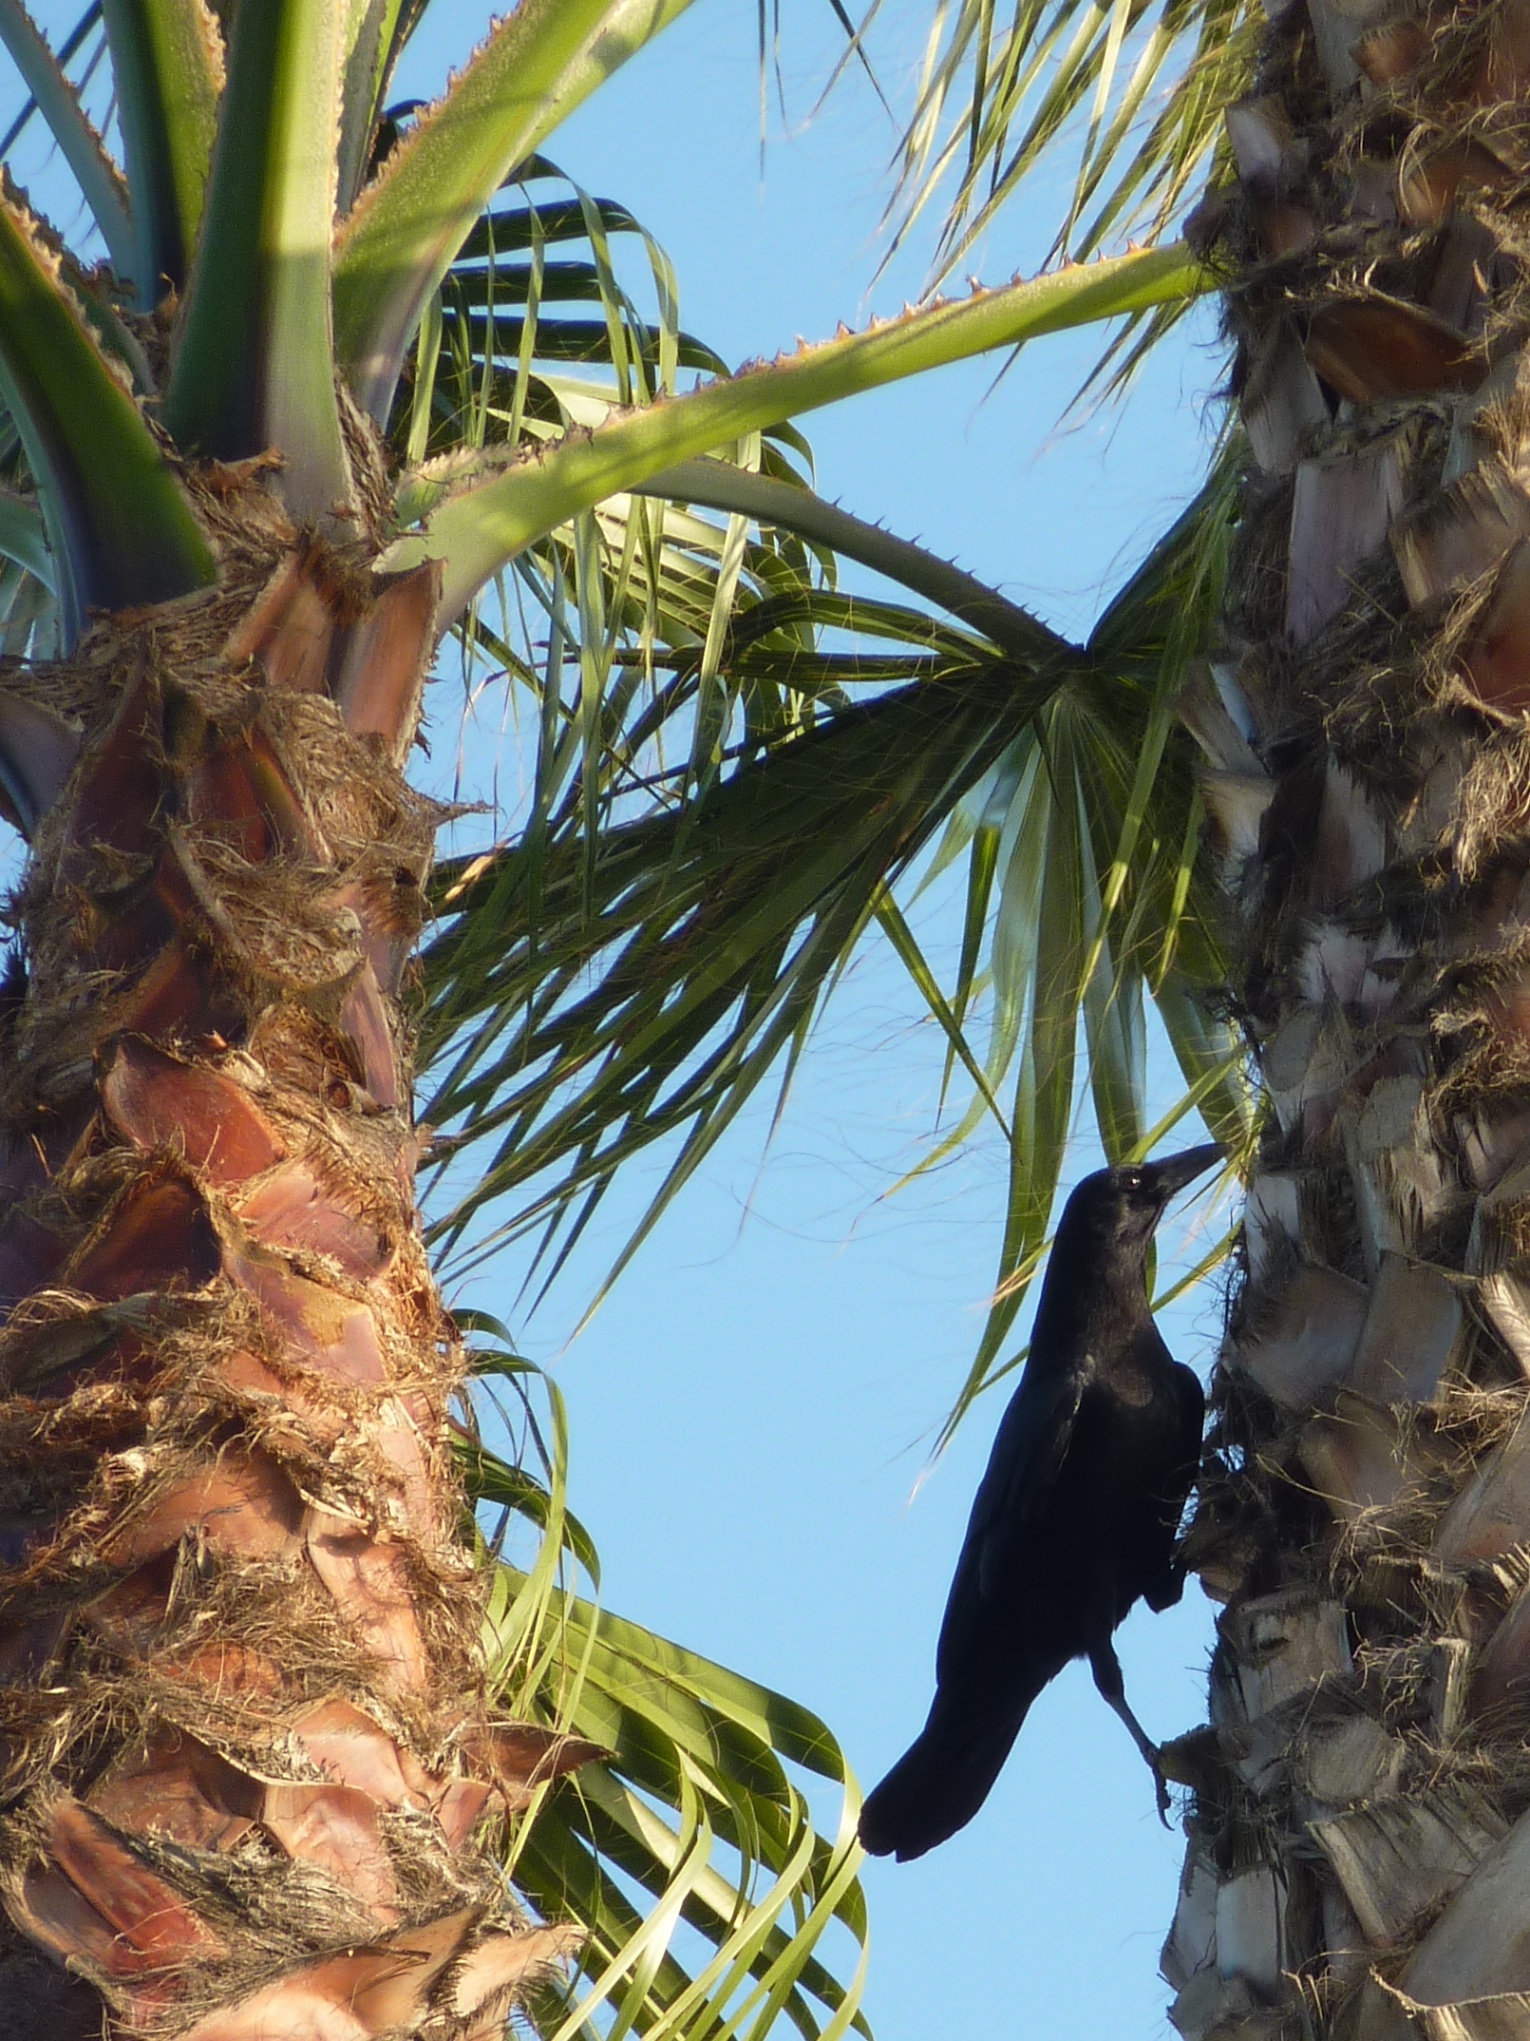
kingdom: Animalia
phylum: Chordata
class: Aves
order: Passeriformes
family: Corvidae
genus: Corvus
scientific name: Corvus brachyrhynchos
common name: American crow
